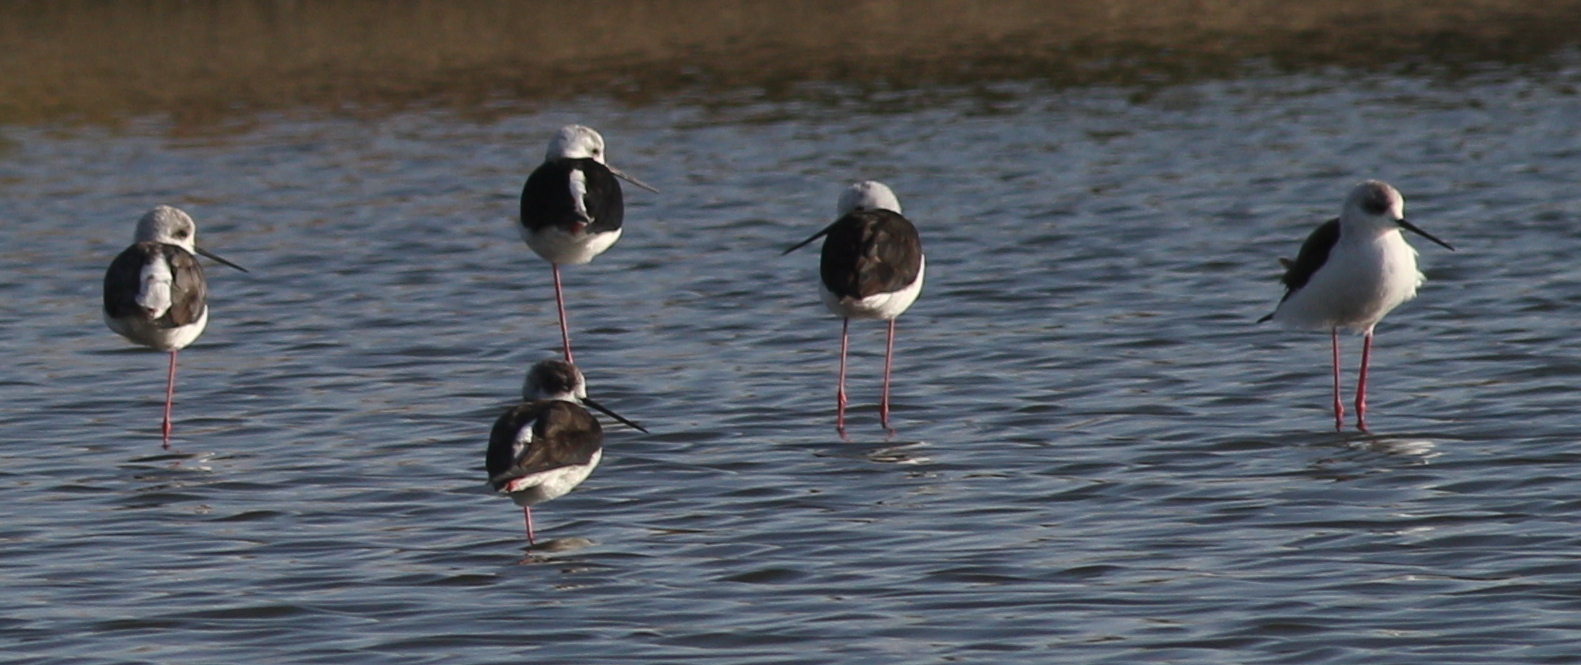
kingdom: Animalia
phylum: Chordata
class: Aves
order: Charadriiformes
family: Recurvirostridae
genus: Himantopus
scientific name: Himantopus himantopus
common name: Black-winged stilt
